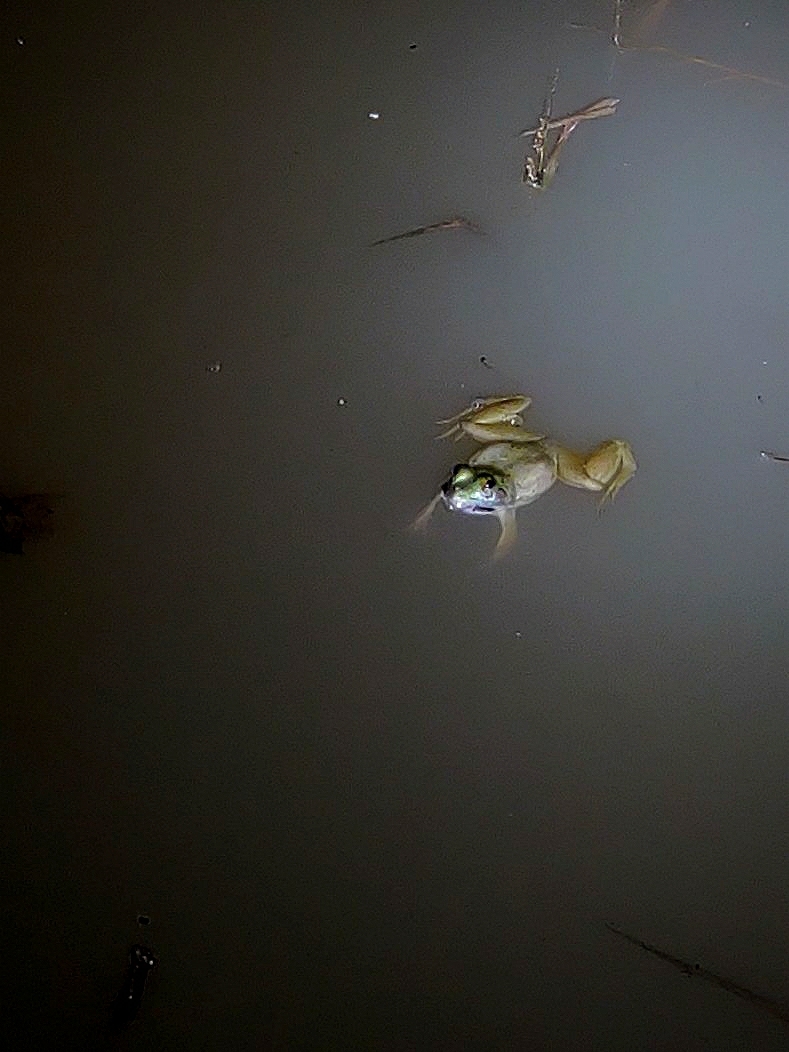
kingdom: Animalia
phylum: Chordata
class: Amphibia
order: Anura
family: Dicroglossidae
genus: Euphlyctis
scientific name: Euphlyctis cyanophlyctis
